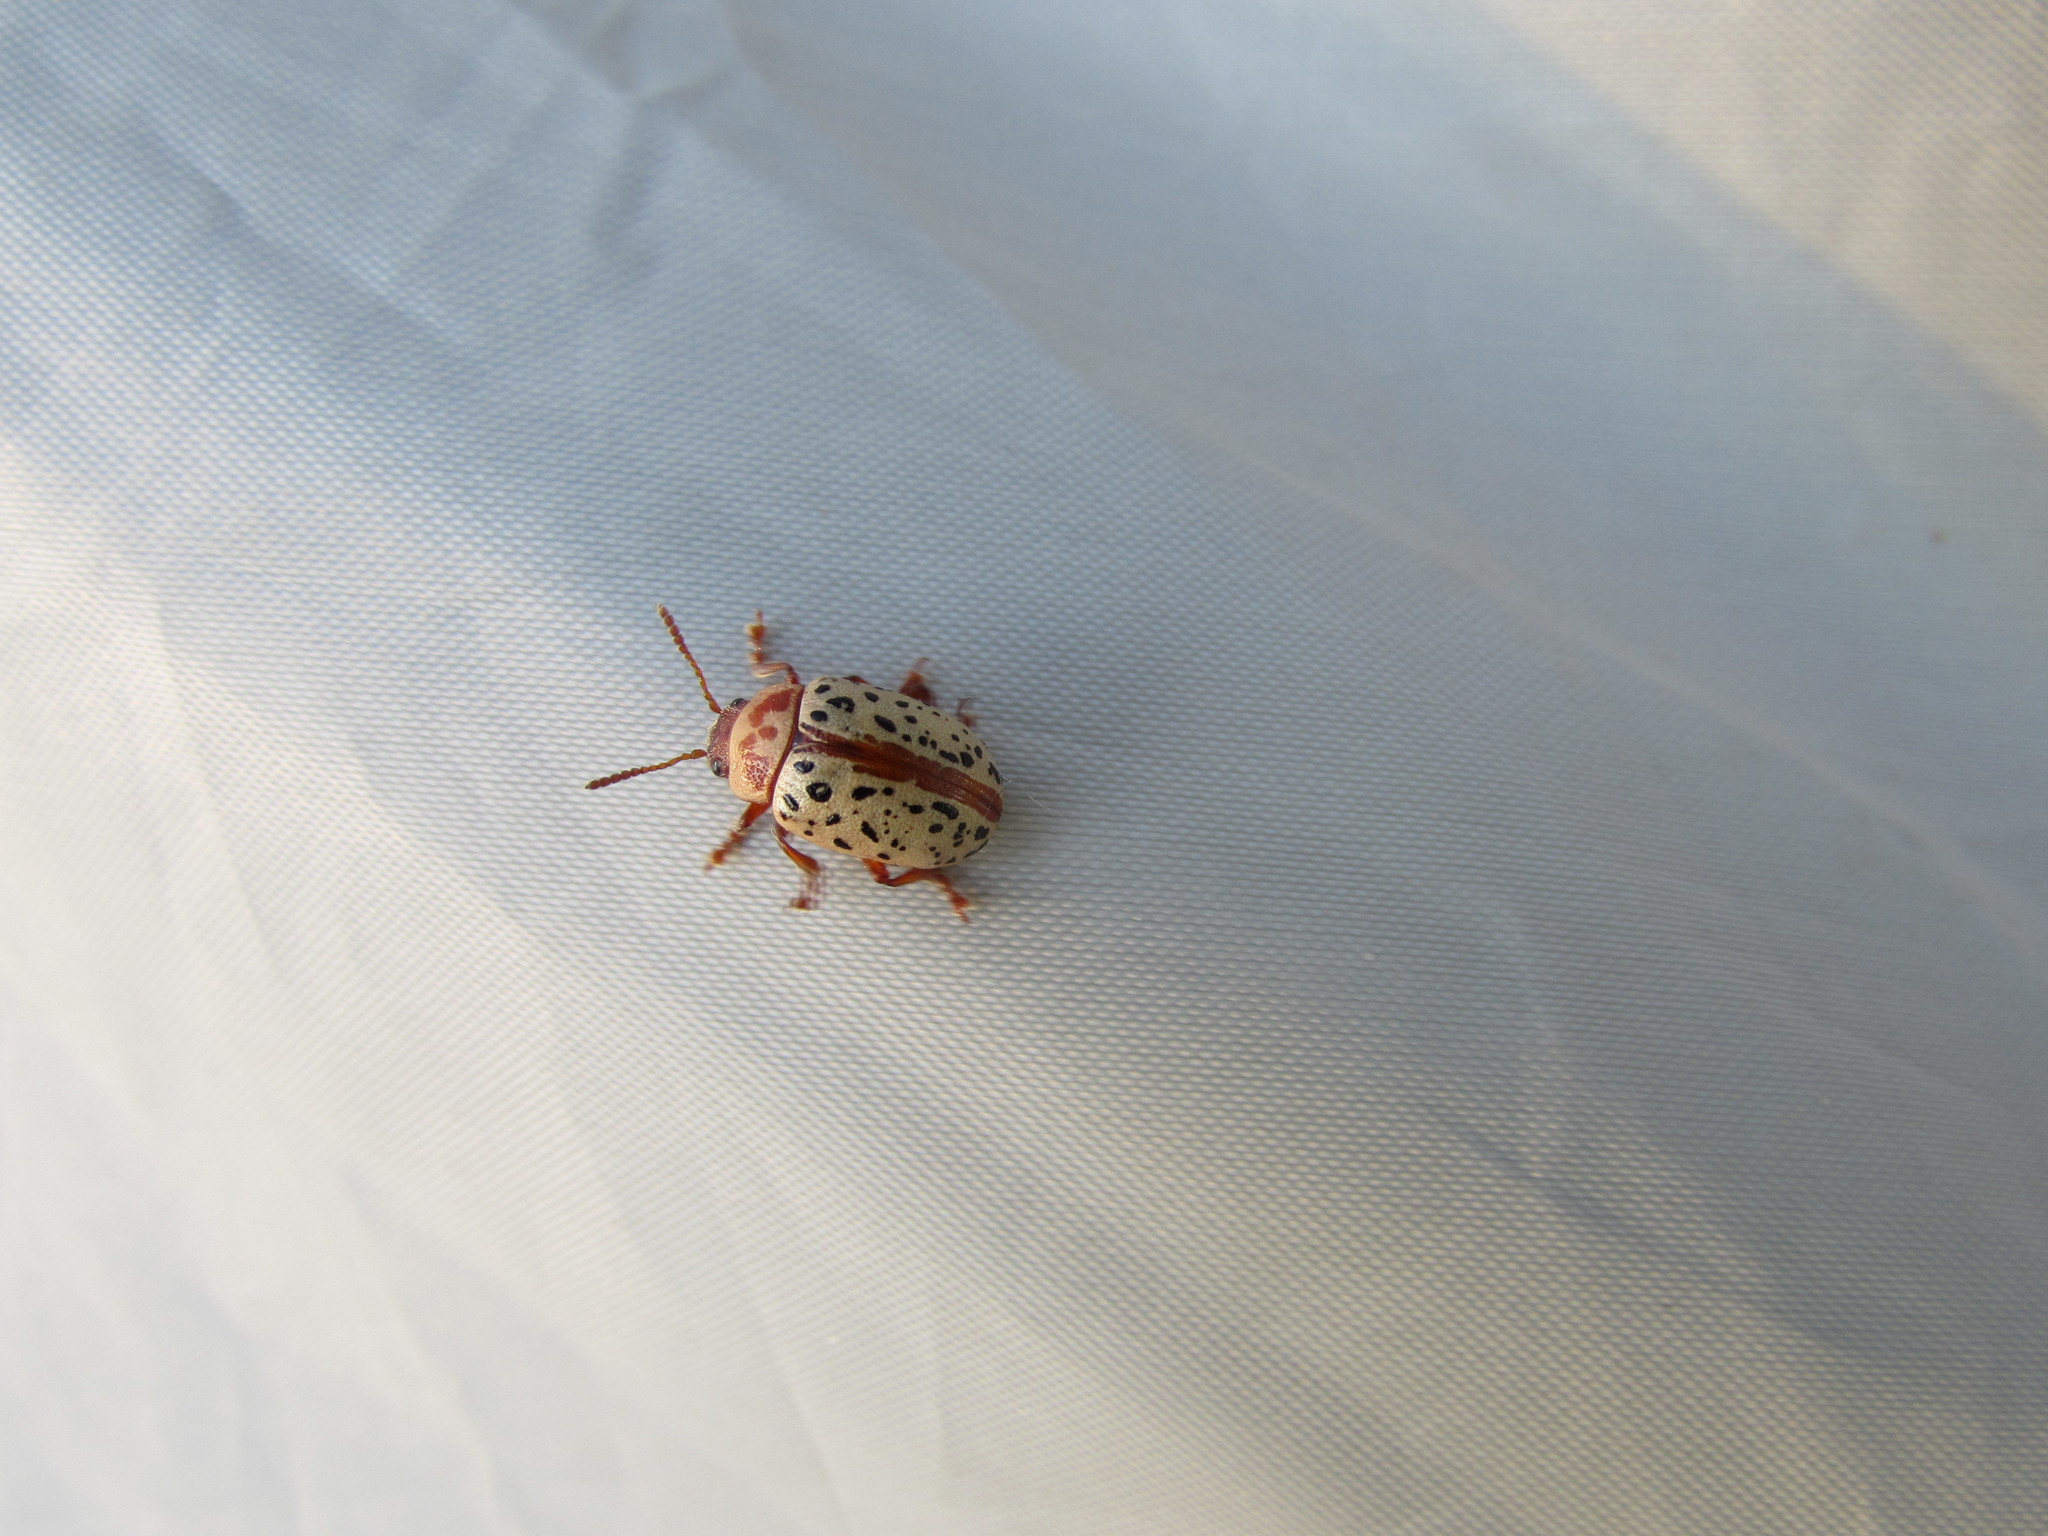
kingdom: Animalia
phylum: Arthropoda
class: Insecta
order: Coleoptera
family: Chrysomelidae
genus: Calligrapha
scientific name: Calligrapha verrucosa
